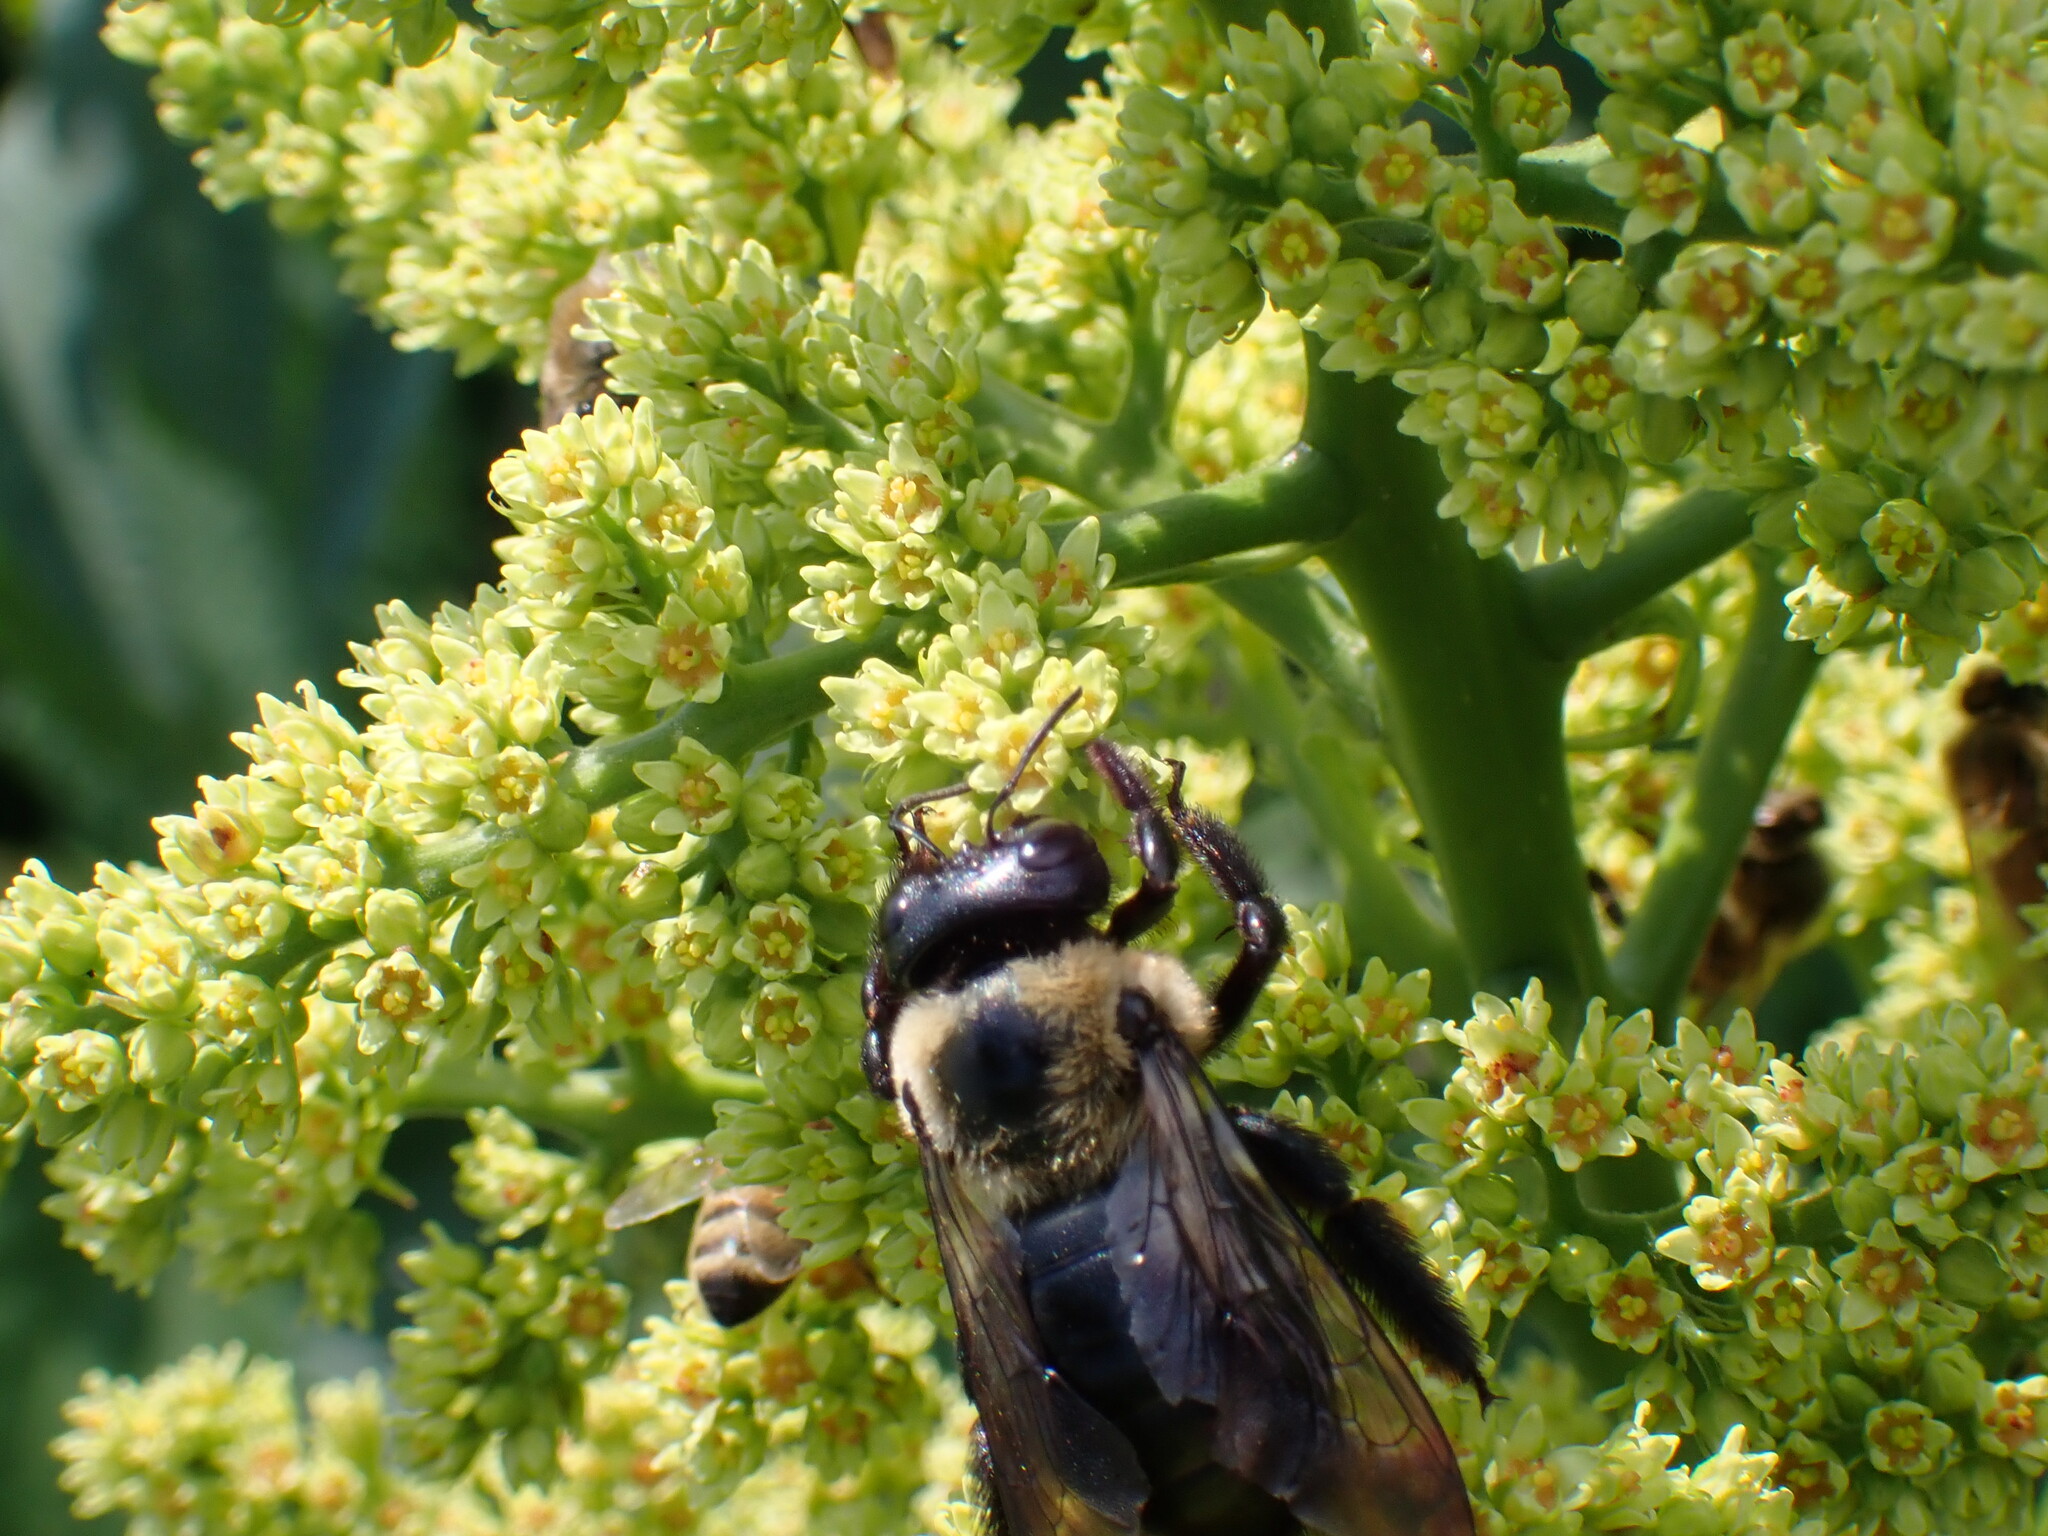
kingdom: Animalia
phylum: Arthropoda
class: Insecta
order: Hymenoptera
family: Apidae
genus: Xylocopa
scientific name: Xylocopa virginica
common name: Carpenter bee
